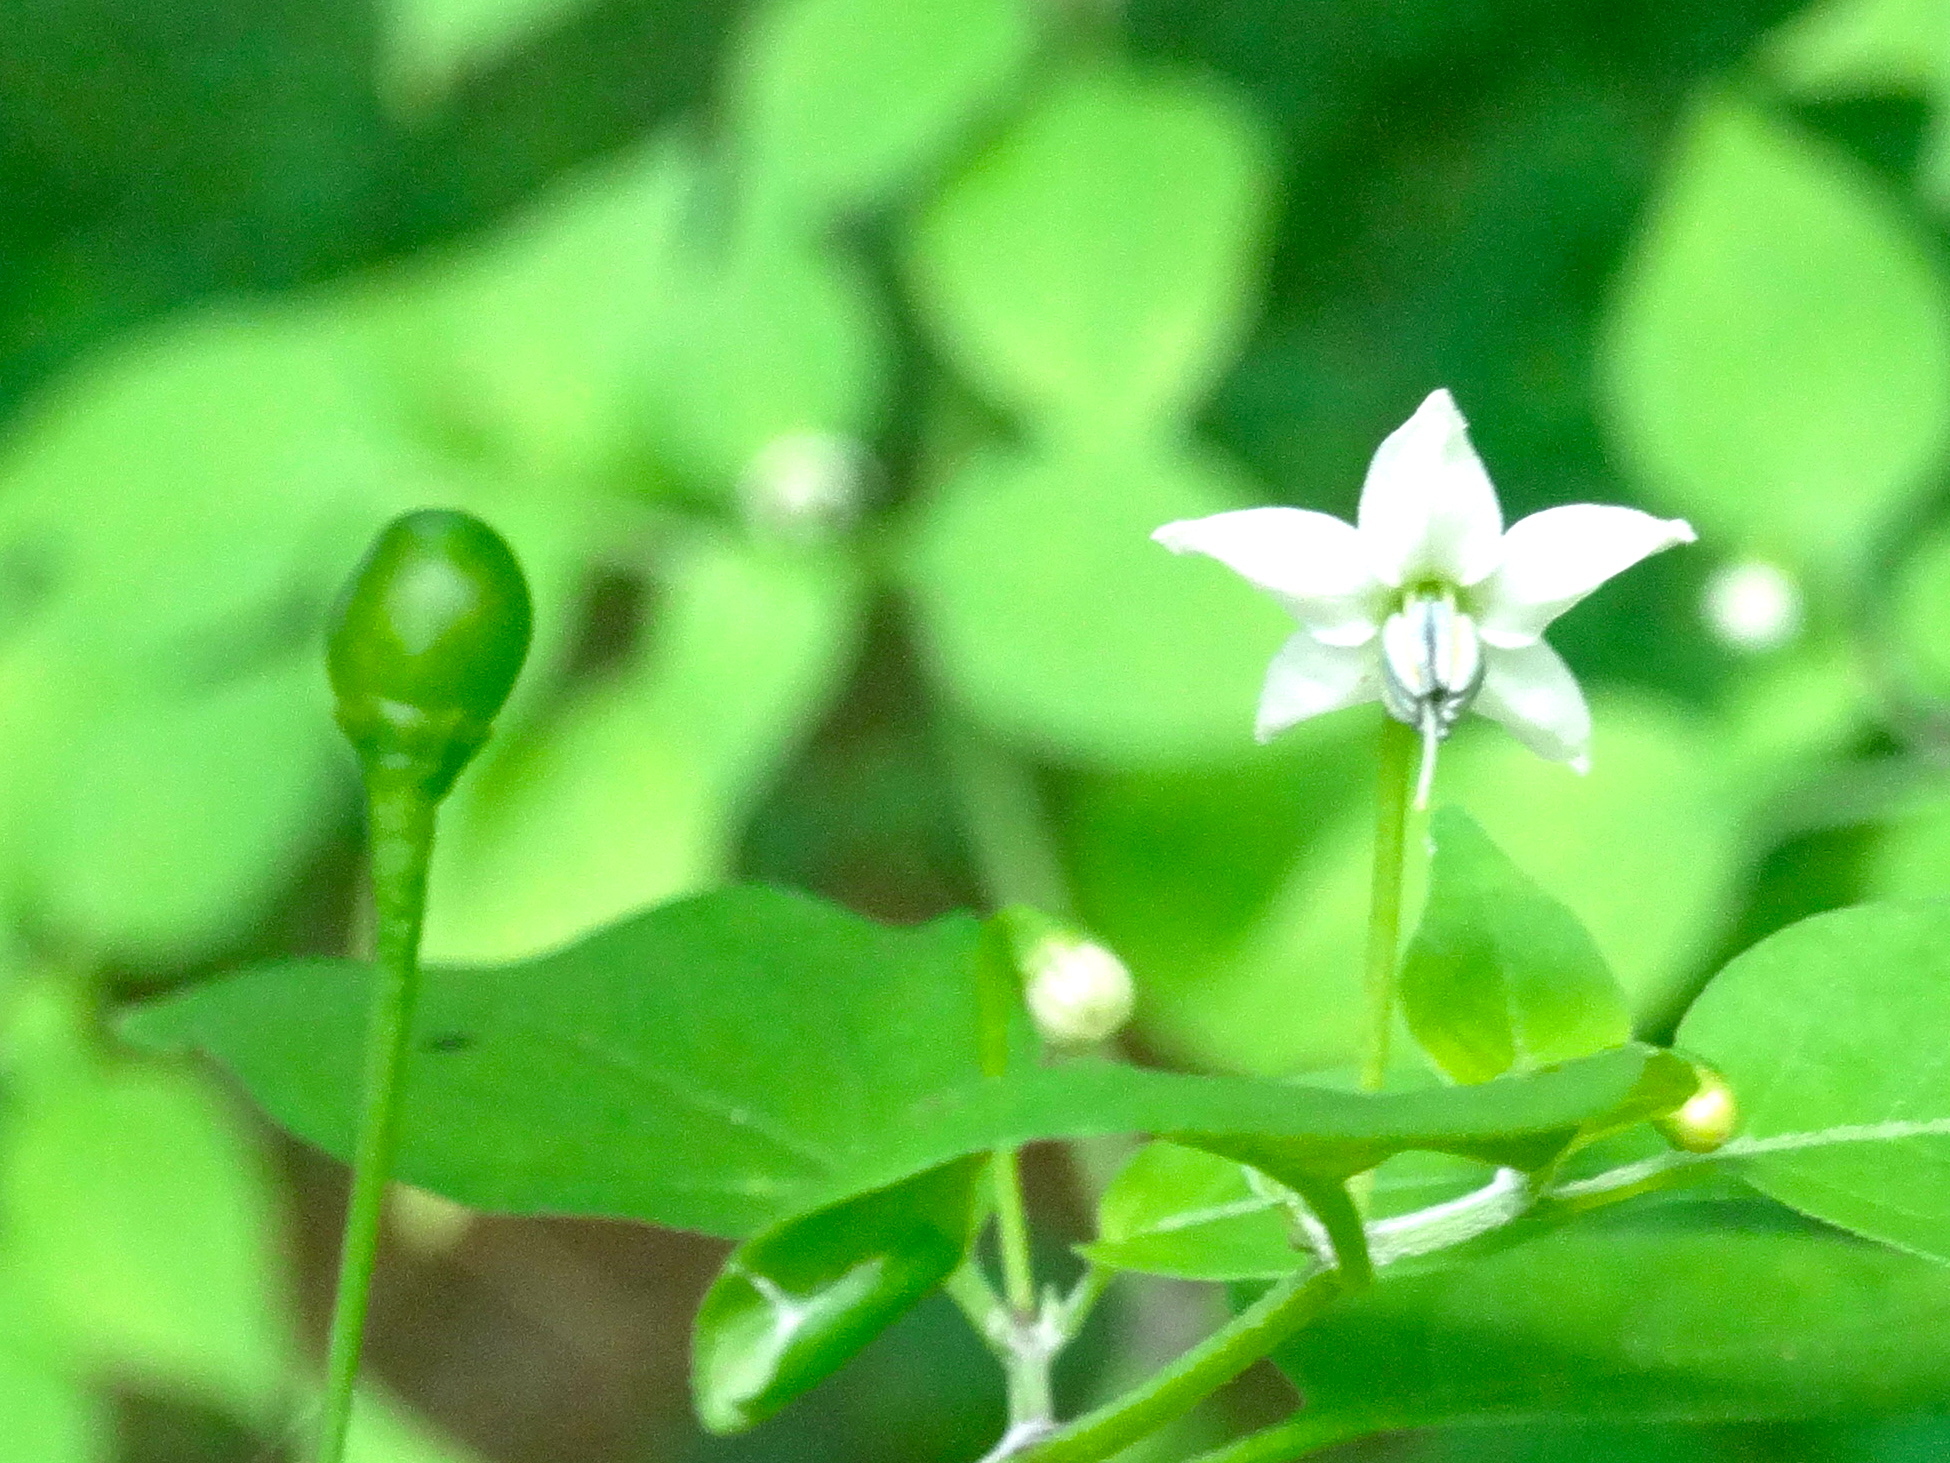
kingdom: Plantae
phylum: Tracheophyta
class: Magnoliopsida
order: Solanales
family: Solanaceae
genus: Capsicum
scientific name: Capsicum annuum
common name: Sweet pepper
